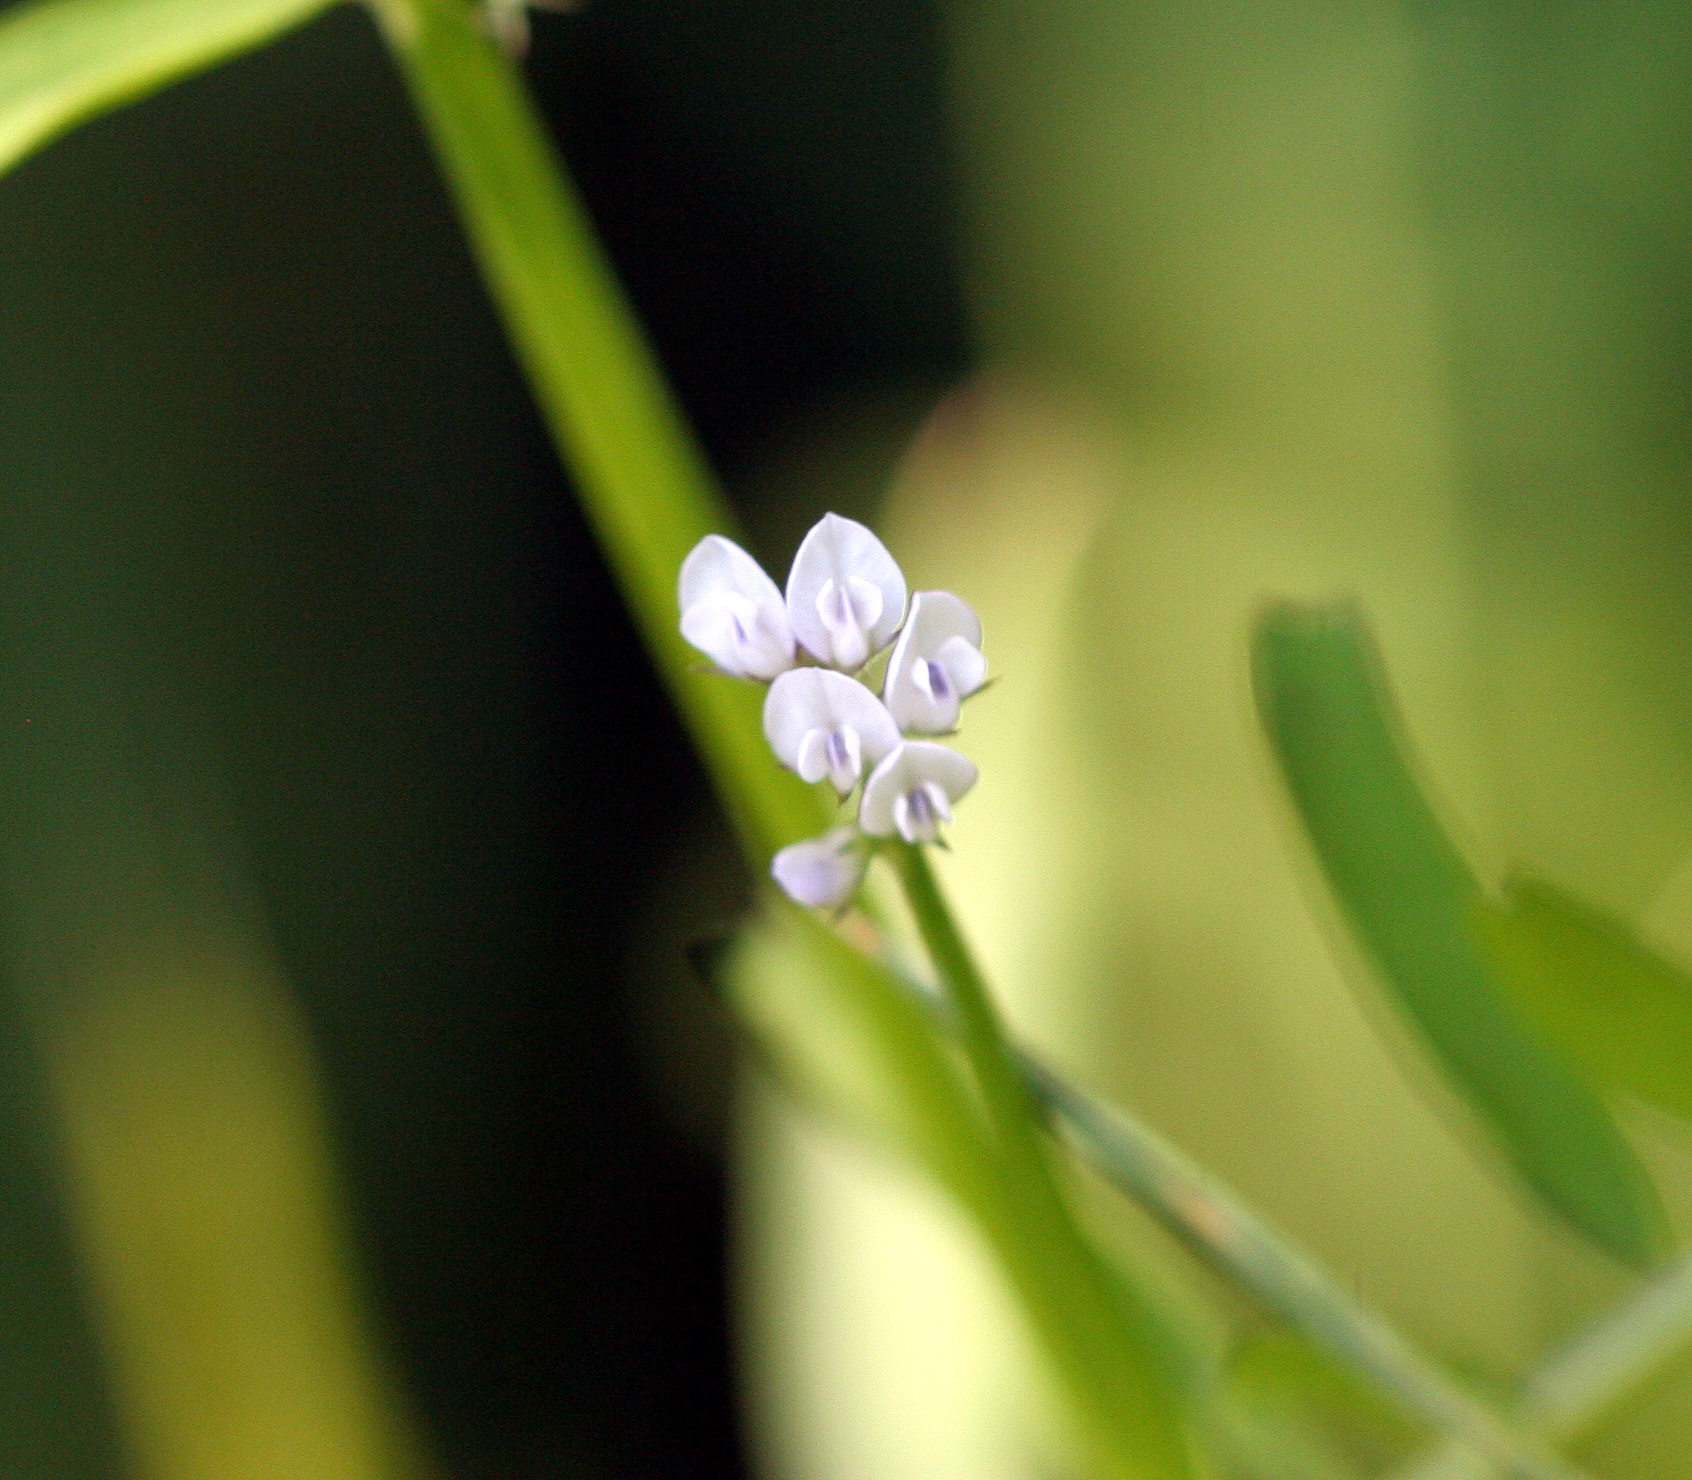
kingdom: Plantae
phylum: Tracheophyta
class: Magnoliopsida
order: Fabales
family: Fabaceae
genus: Vicia
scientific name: Vicia hirsuta
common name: Tiny vetch
